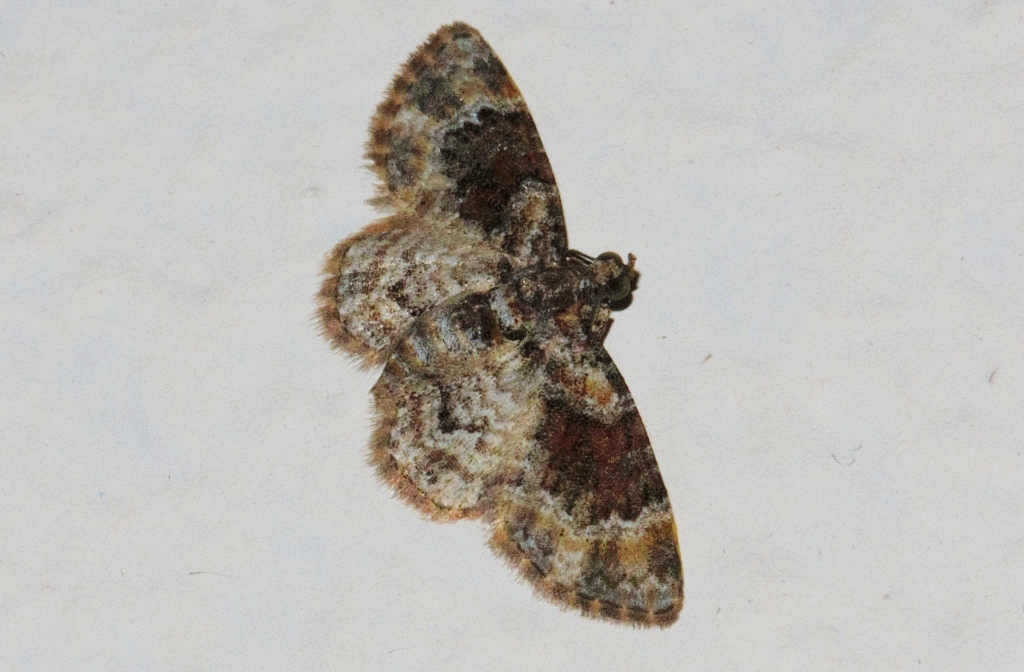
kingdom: Animalia
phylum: Arthropoda
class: Insecta
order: Lepidoptera
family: Geometridae
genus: Mesocolpia
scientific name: Mesocolpia lita
